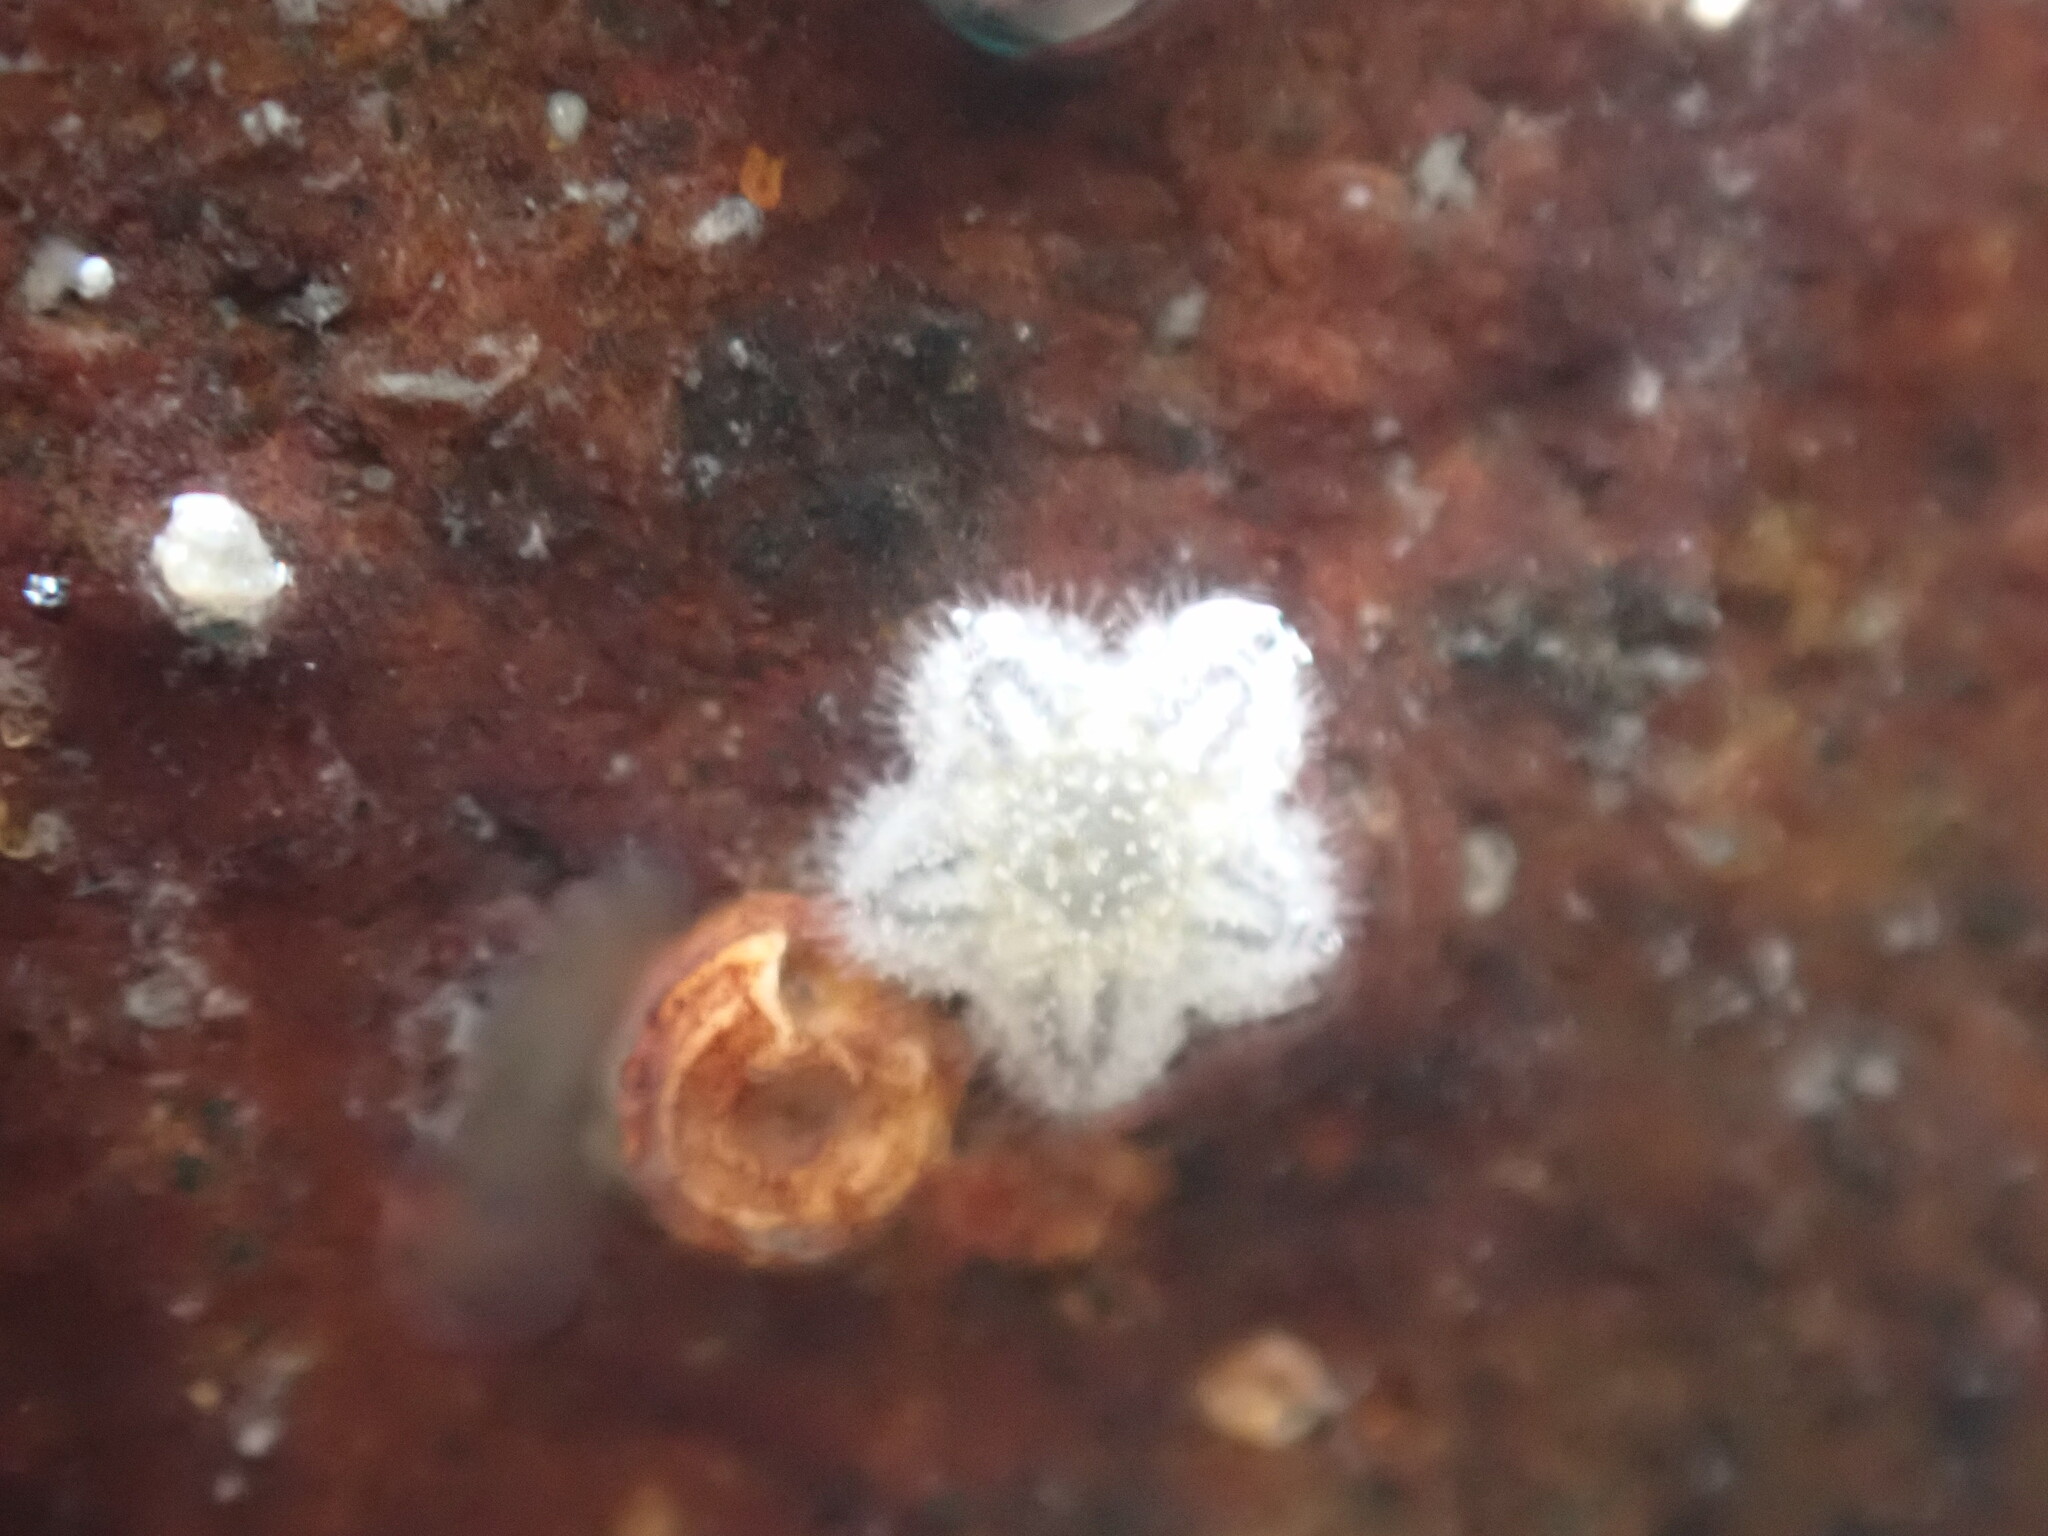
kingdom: Animalia
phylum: Echinodermata
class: Asteroidea
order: Valvatida
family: Asterinidae
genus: Patiriella
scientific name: Patiriella regularis
